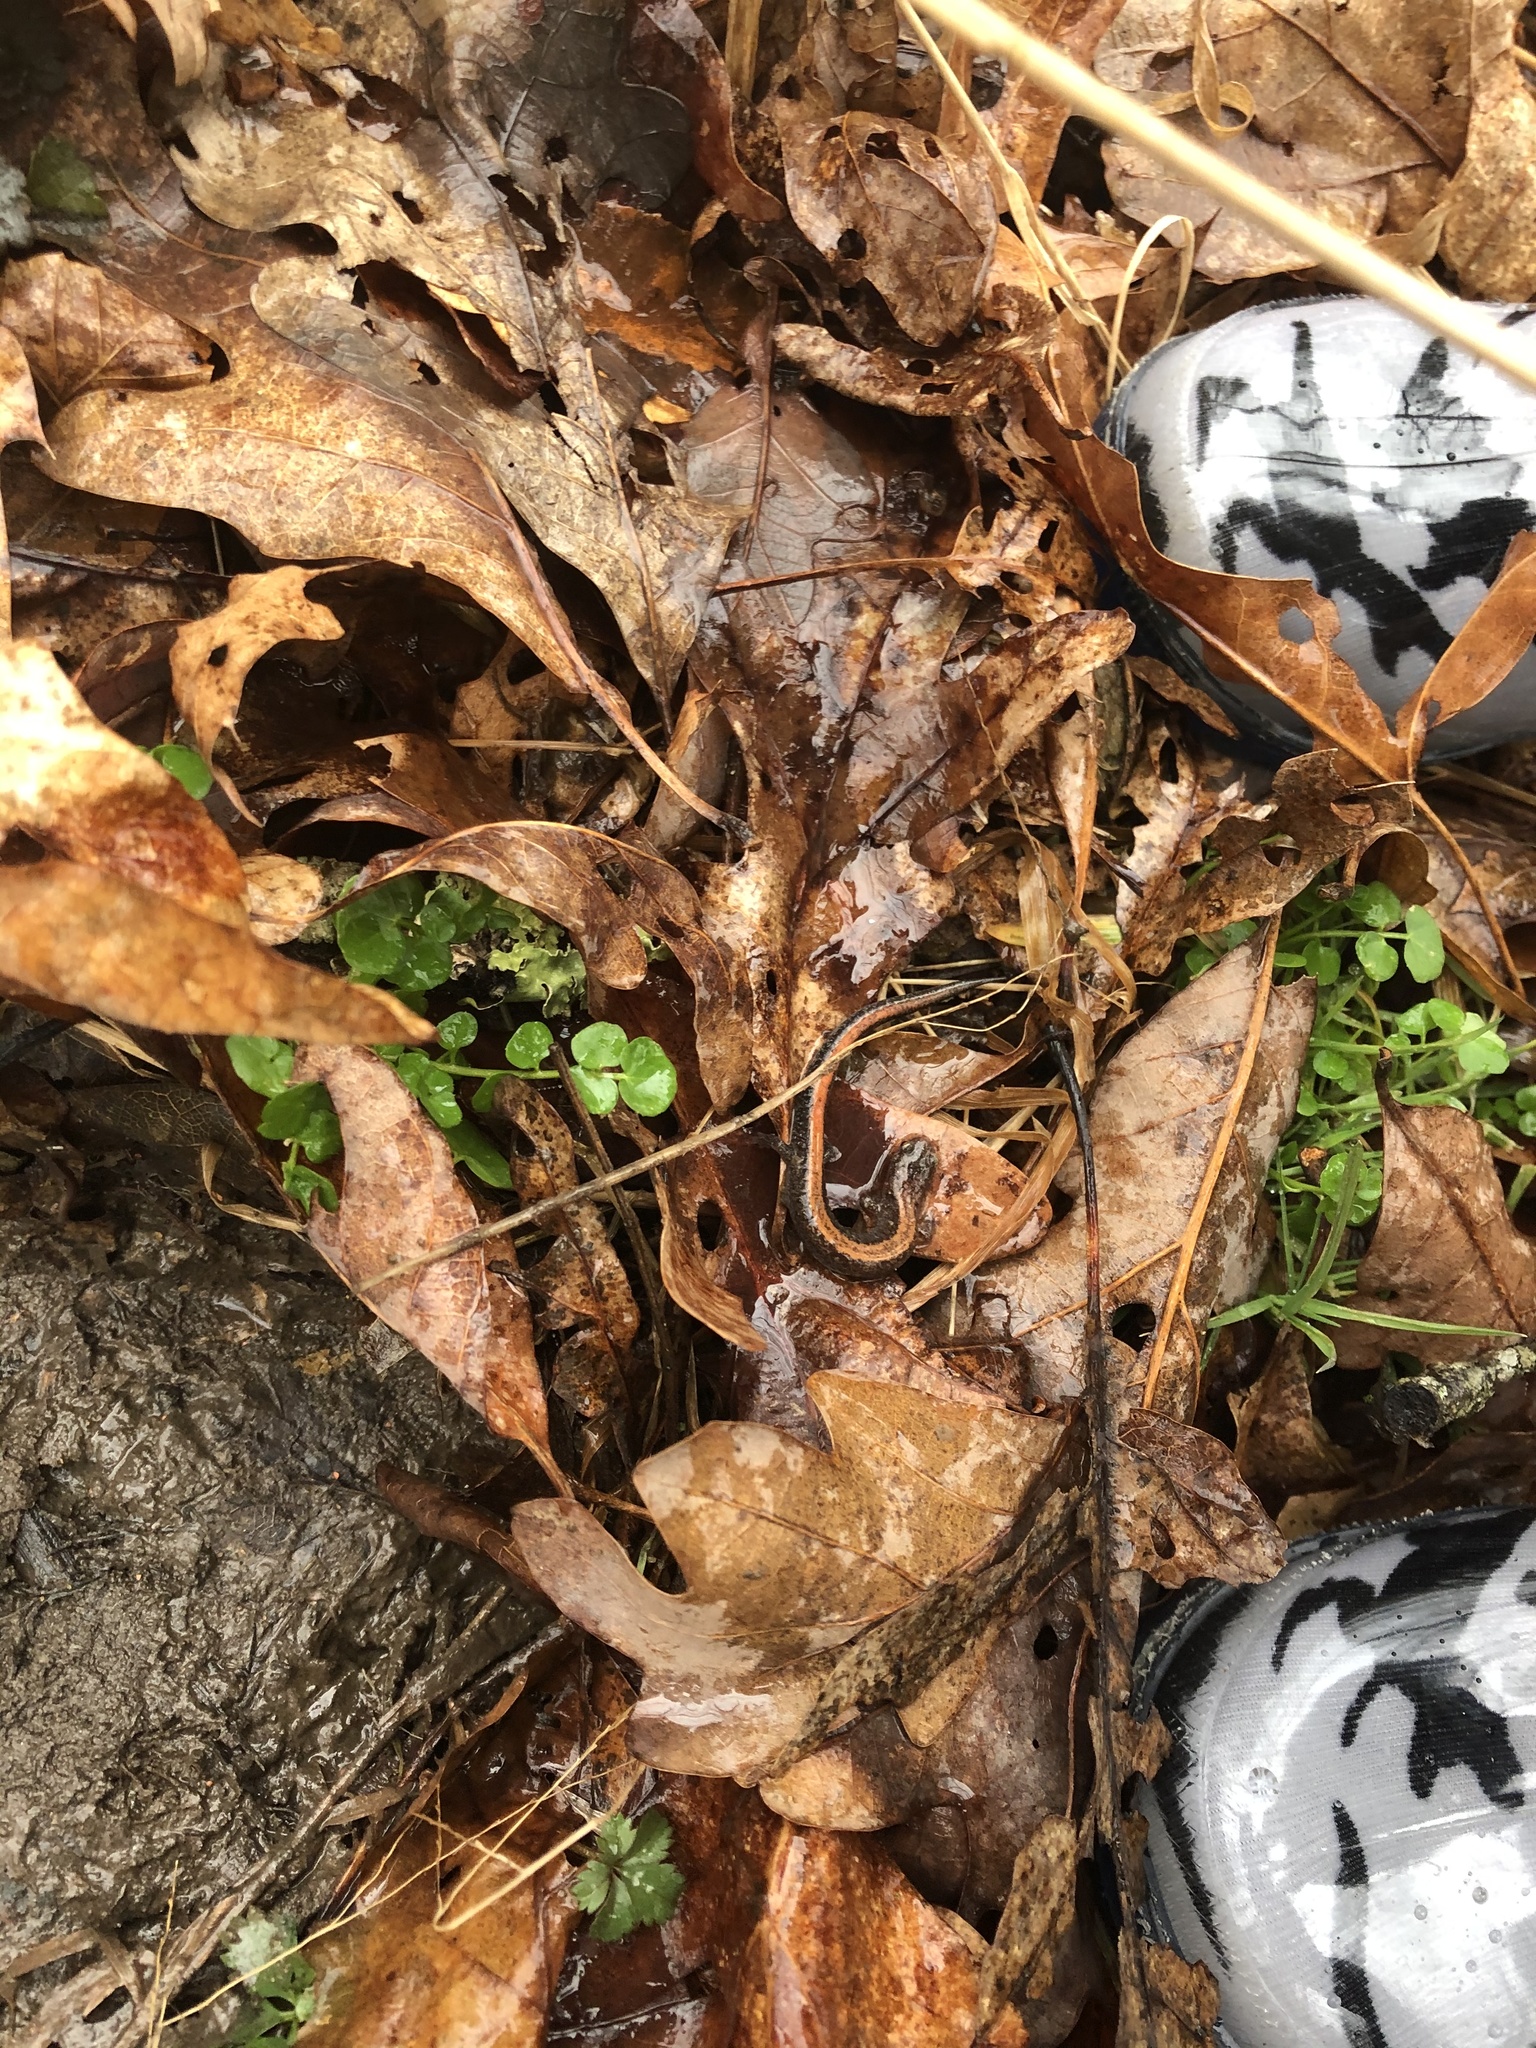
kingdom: Animalia
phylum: Chordata
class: Amphibia
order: Caudata
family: Plethodontidae
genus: Plethodon
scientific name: Plethodon cinereus
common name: Redback salamander
